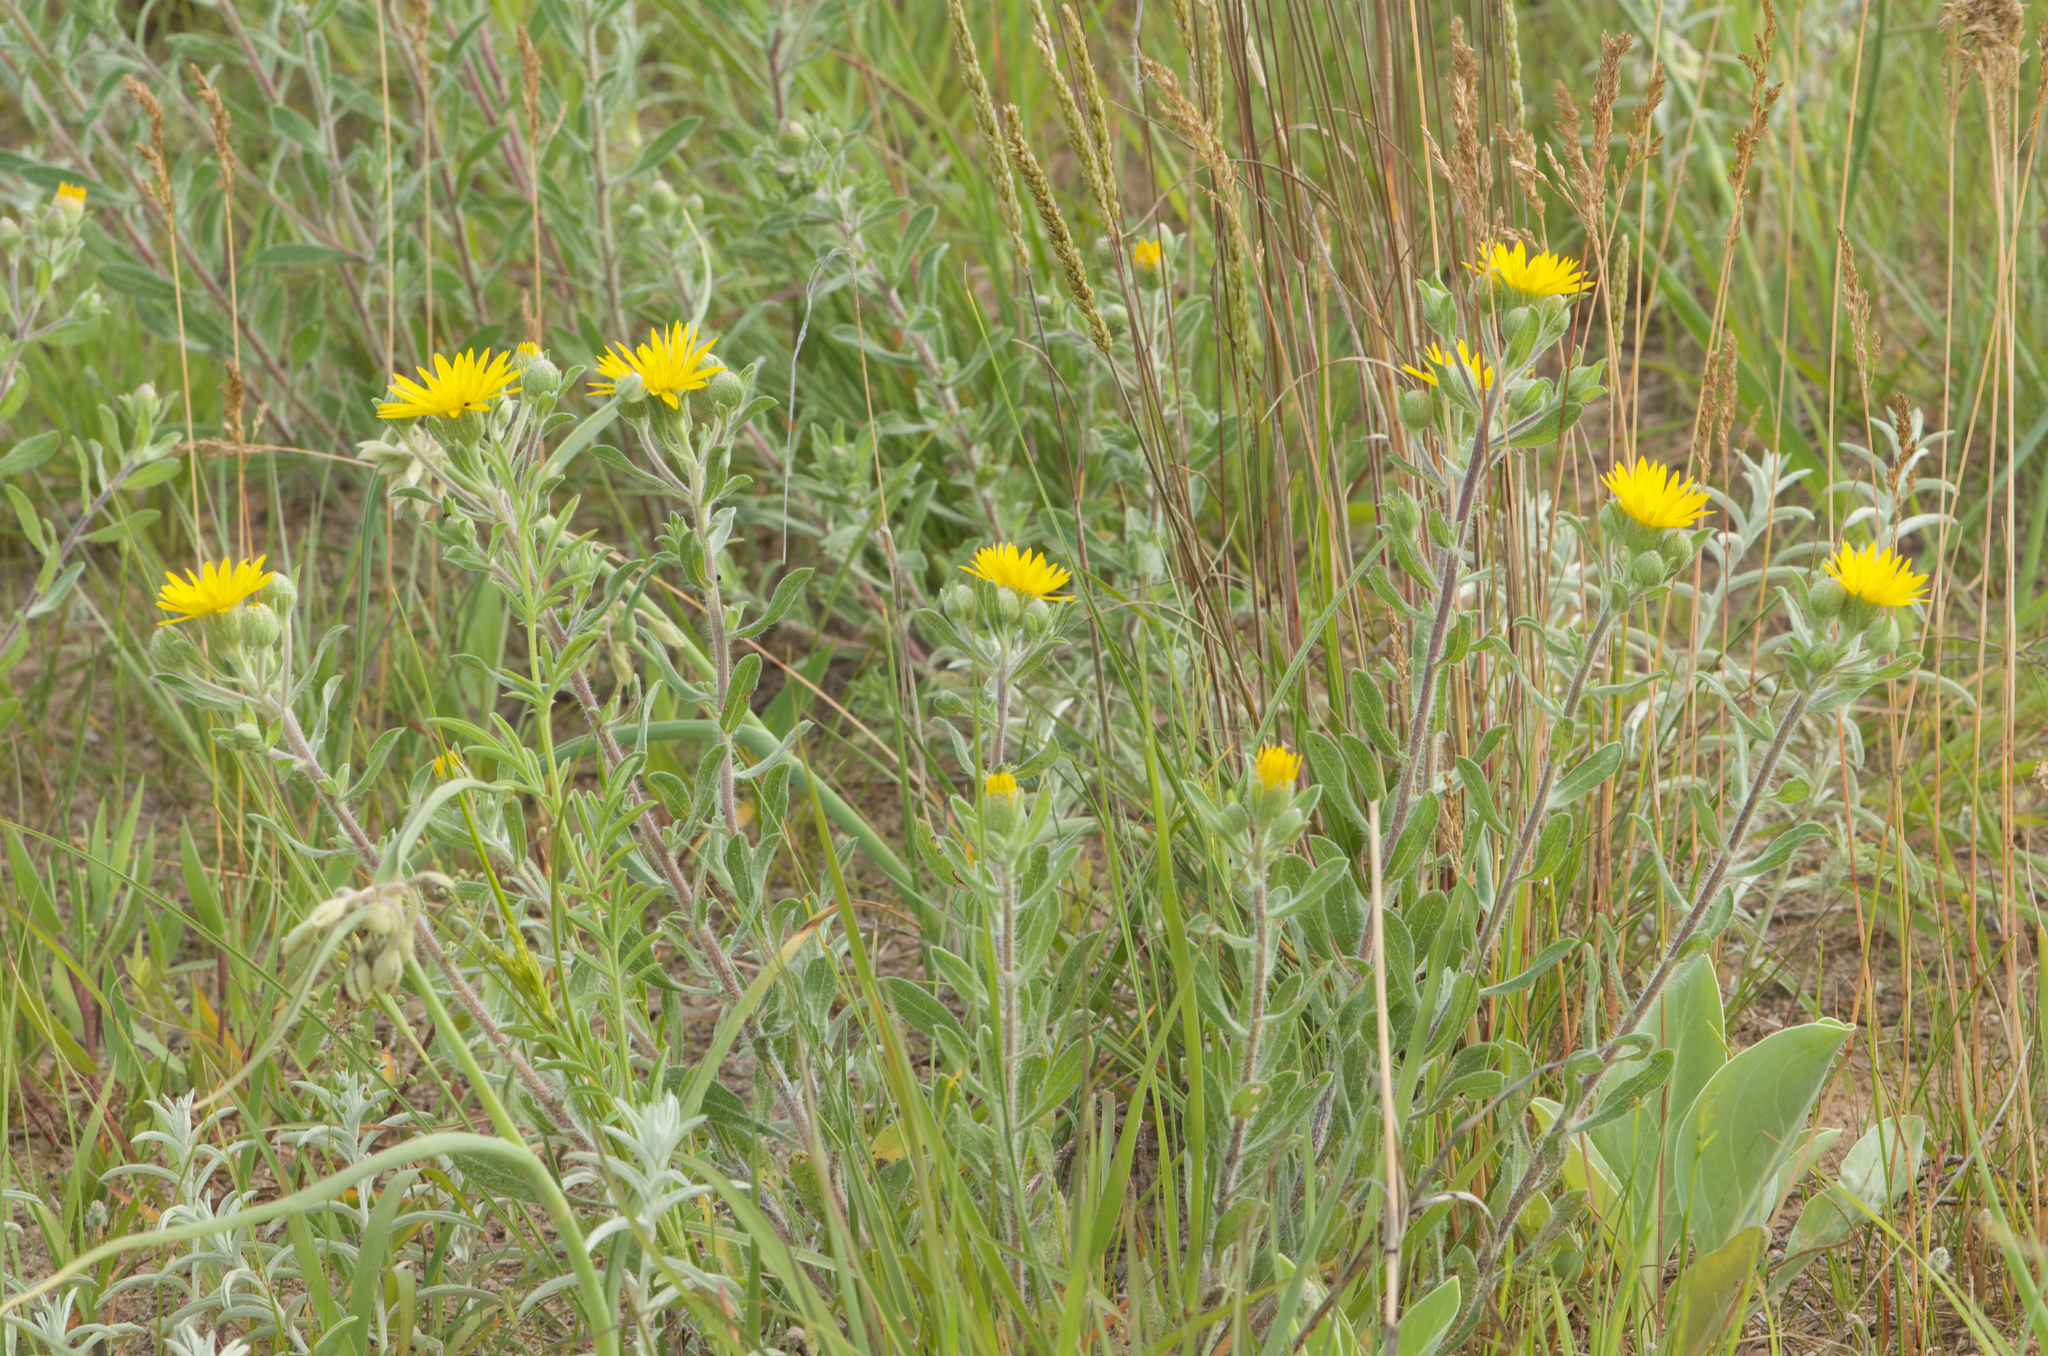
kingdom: Plantae
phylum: Tracheophyta
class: Magnoliopsida
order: Asterales
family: Asteraceae
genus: Heterotheca
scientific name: Heterotheca villosa
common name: Hairy false goldenaster
